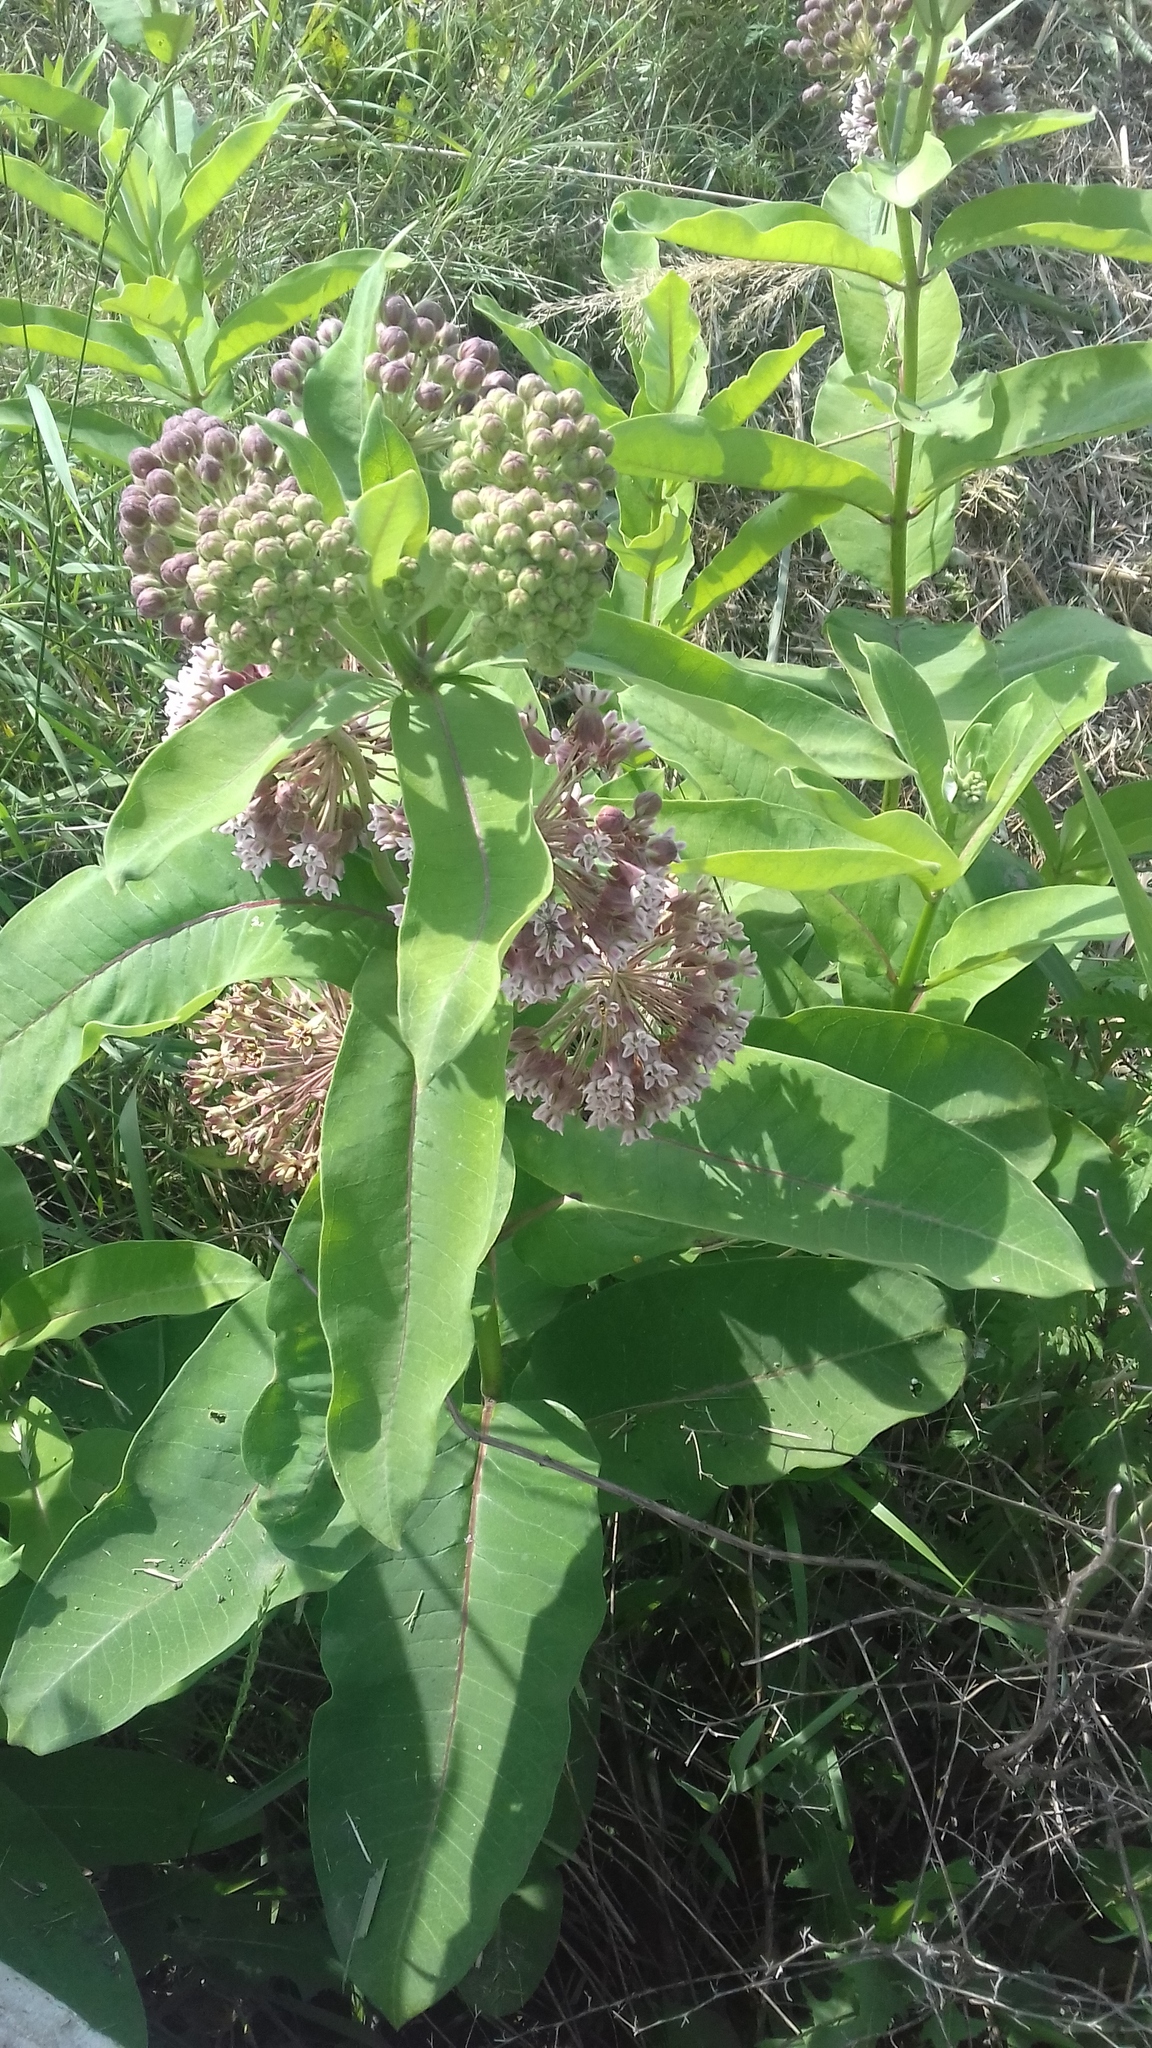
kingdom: Plantae
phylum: Tracheophyta
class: Magnoliopsida
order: Gentianales
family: Apocynaceae
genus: Asclepias
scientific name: Asclepias syriaca
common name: Common milkweed
